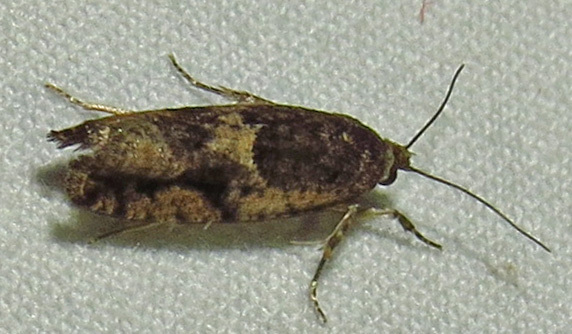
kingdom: Animalia
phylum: Arthropoda
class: Insecta
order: Lepidoptera
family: Tortricidae
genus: Larisa
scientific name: Larisa subsolana
